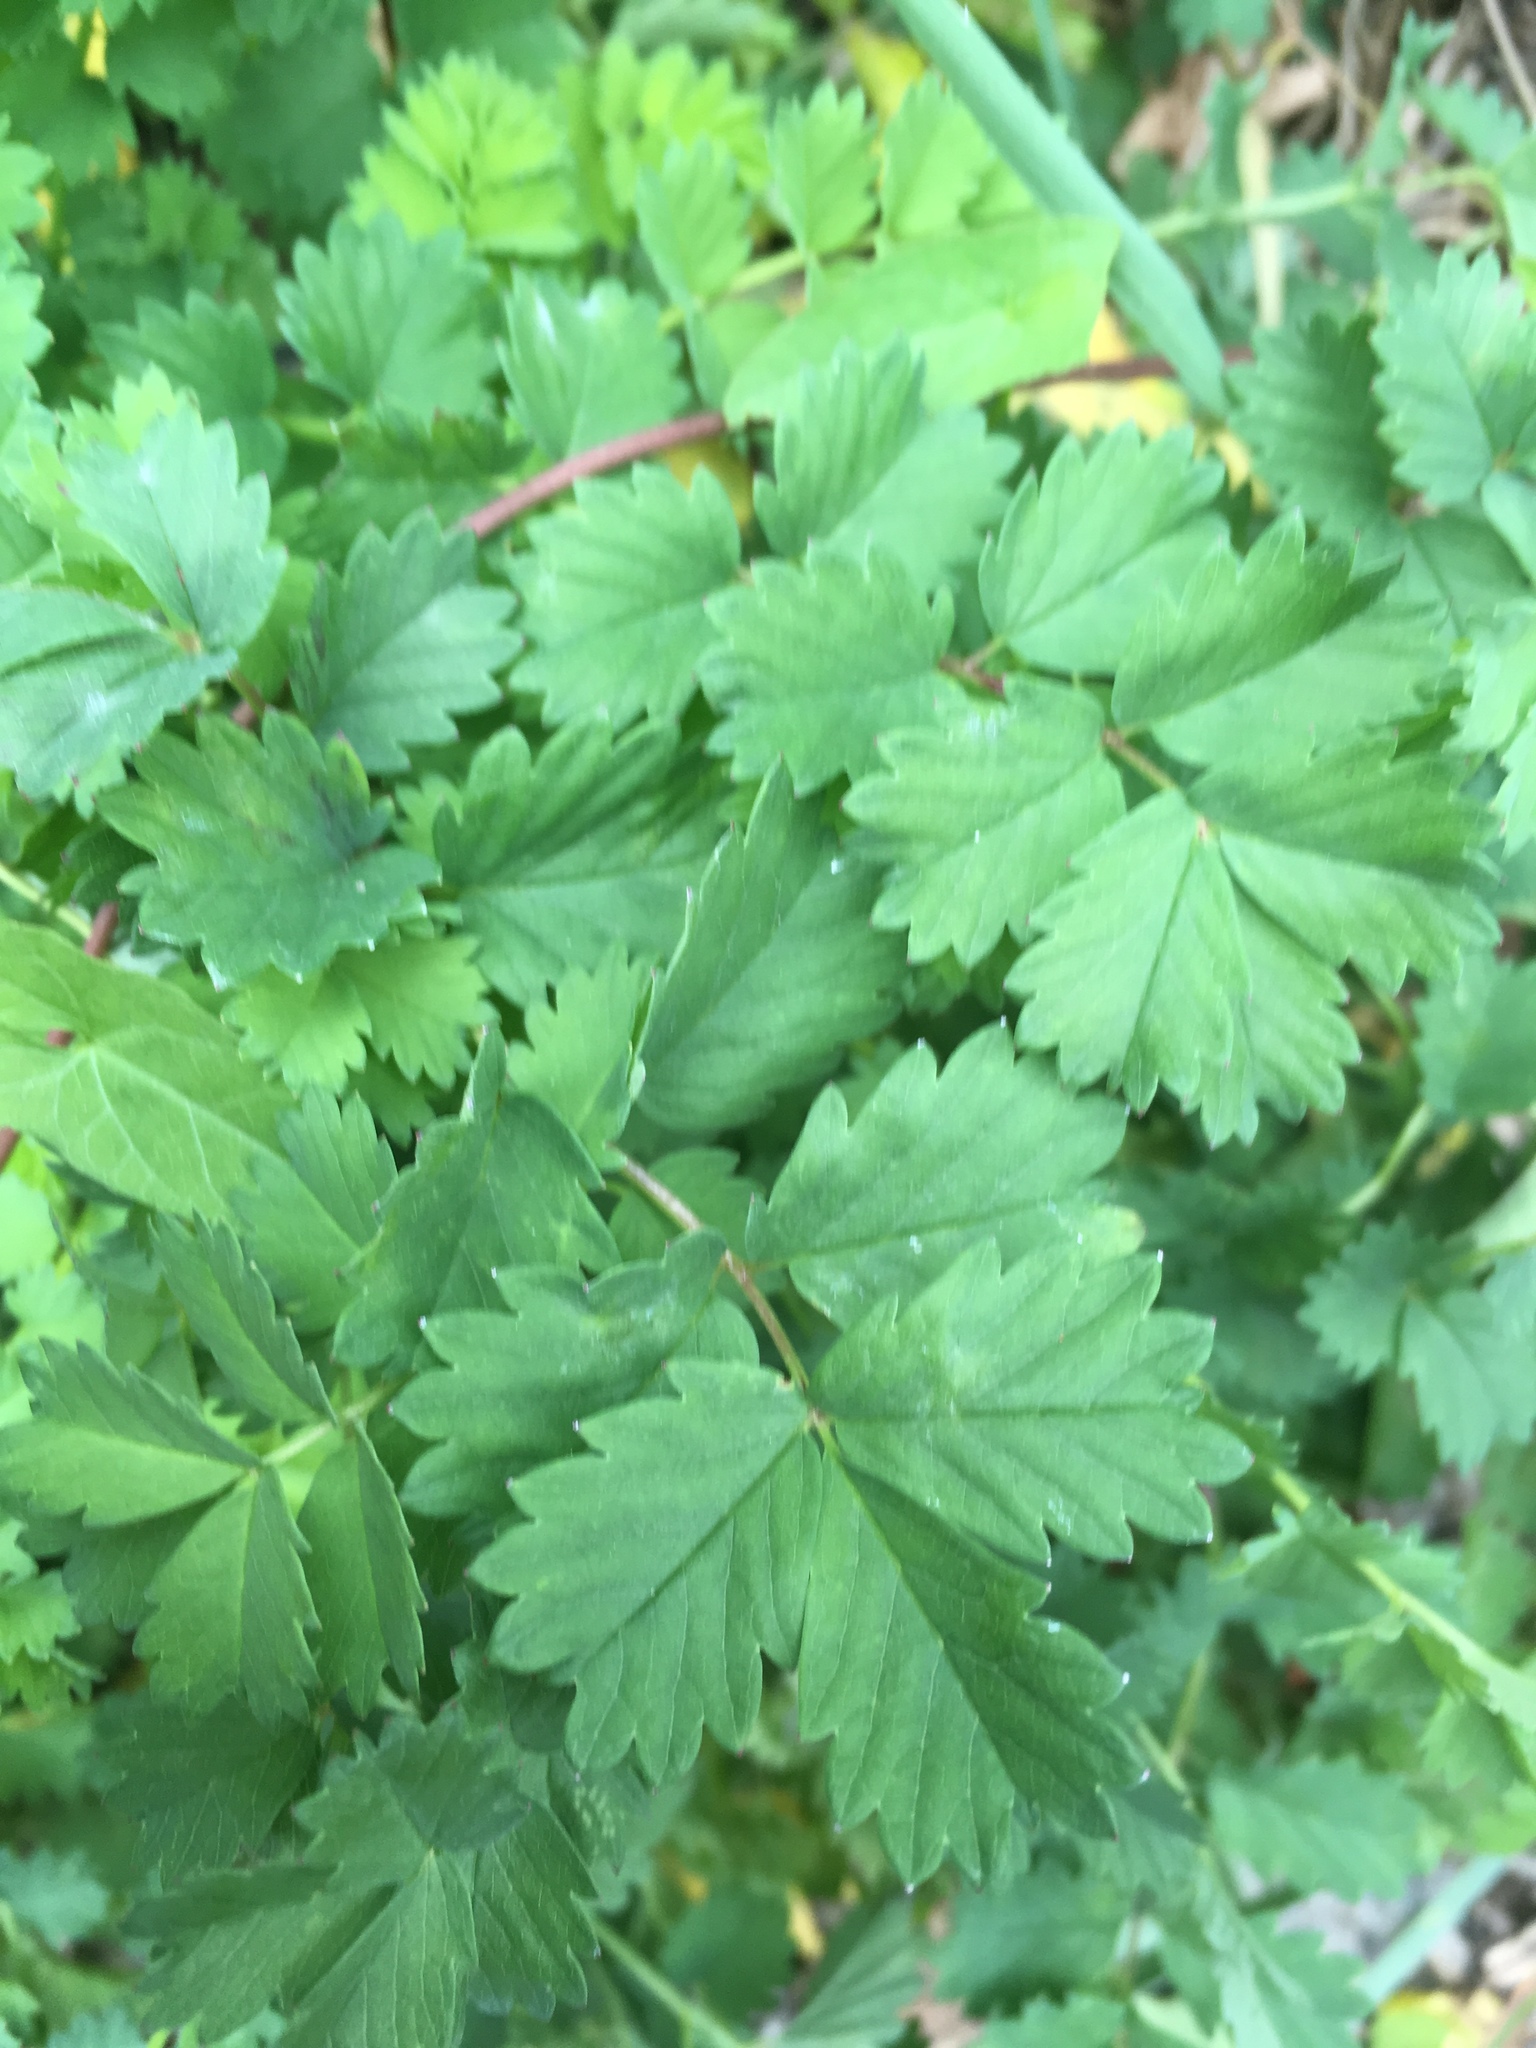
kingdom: Plantae
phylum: Tracheophyta
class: Magnoliopsida
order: Rosales
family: Rosaceae
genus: Poterium
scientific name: Poterium sanguisorba
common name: Salad burnet
